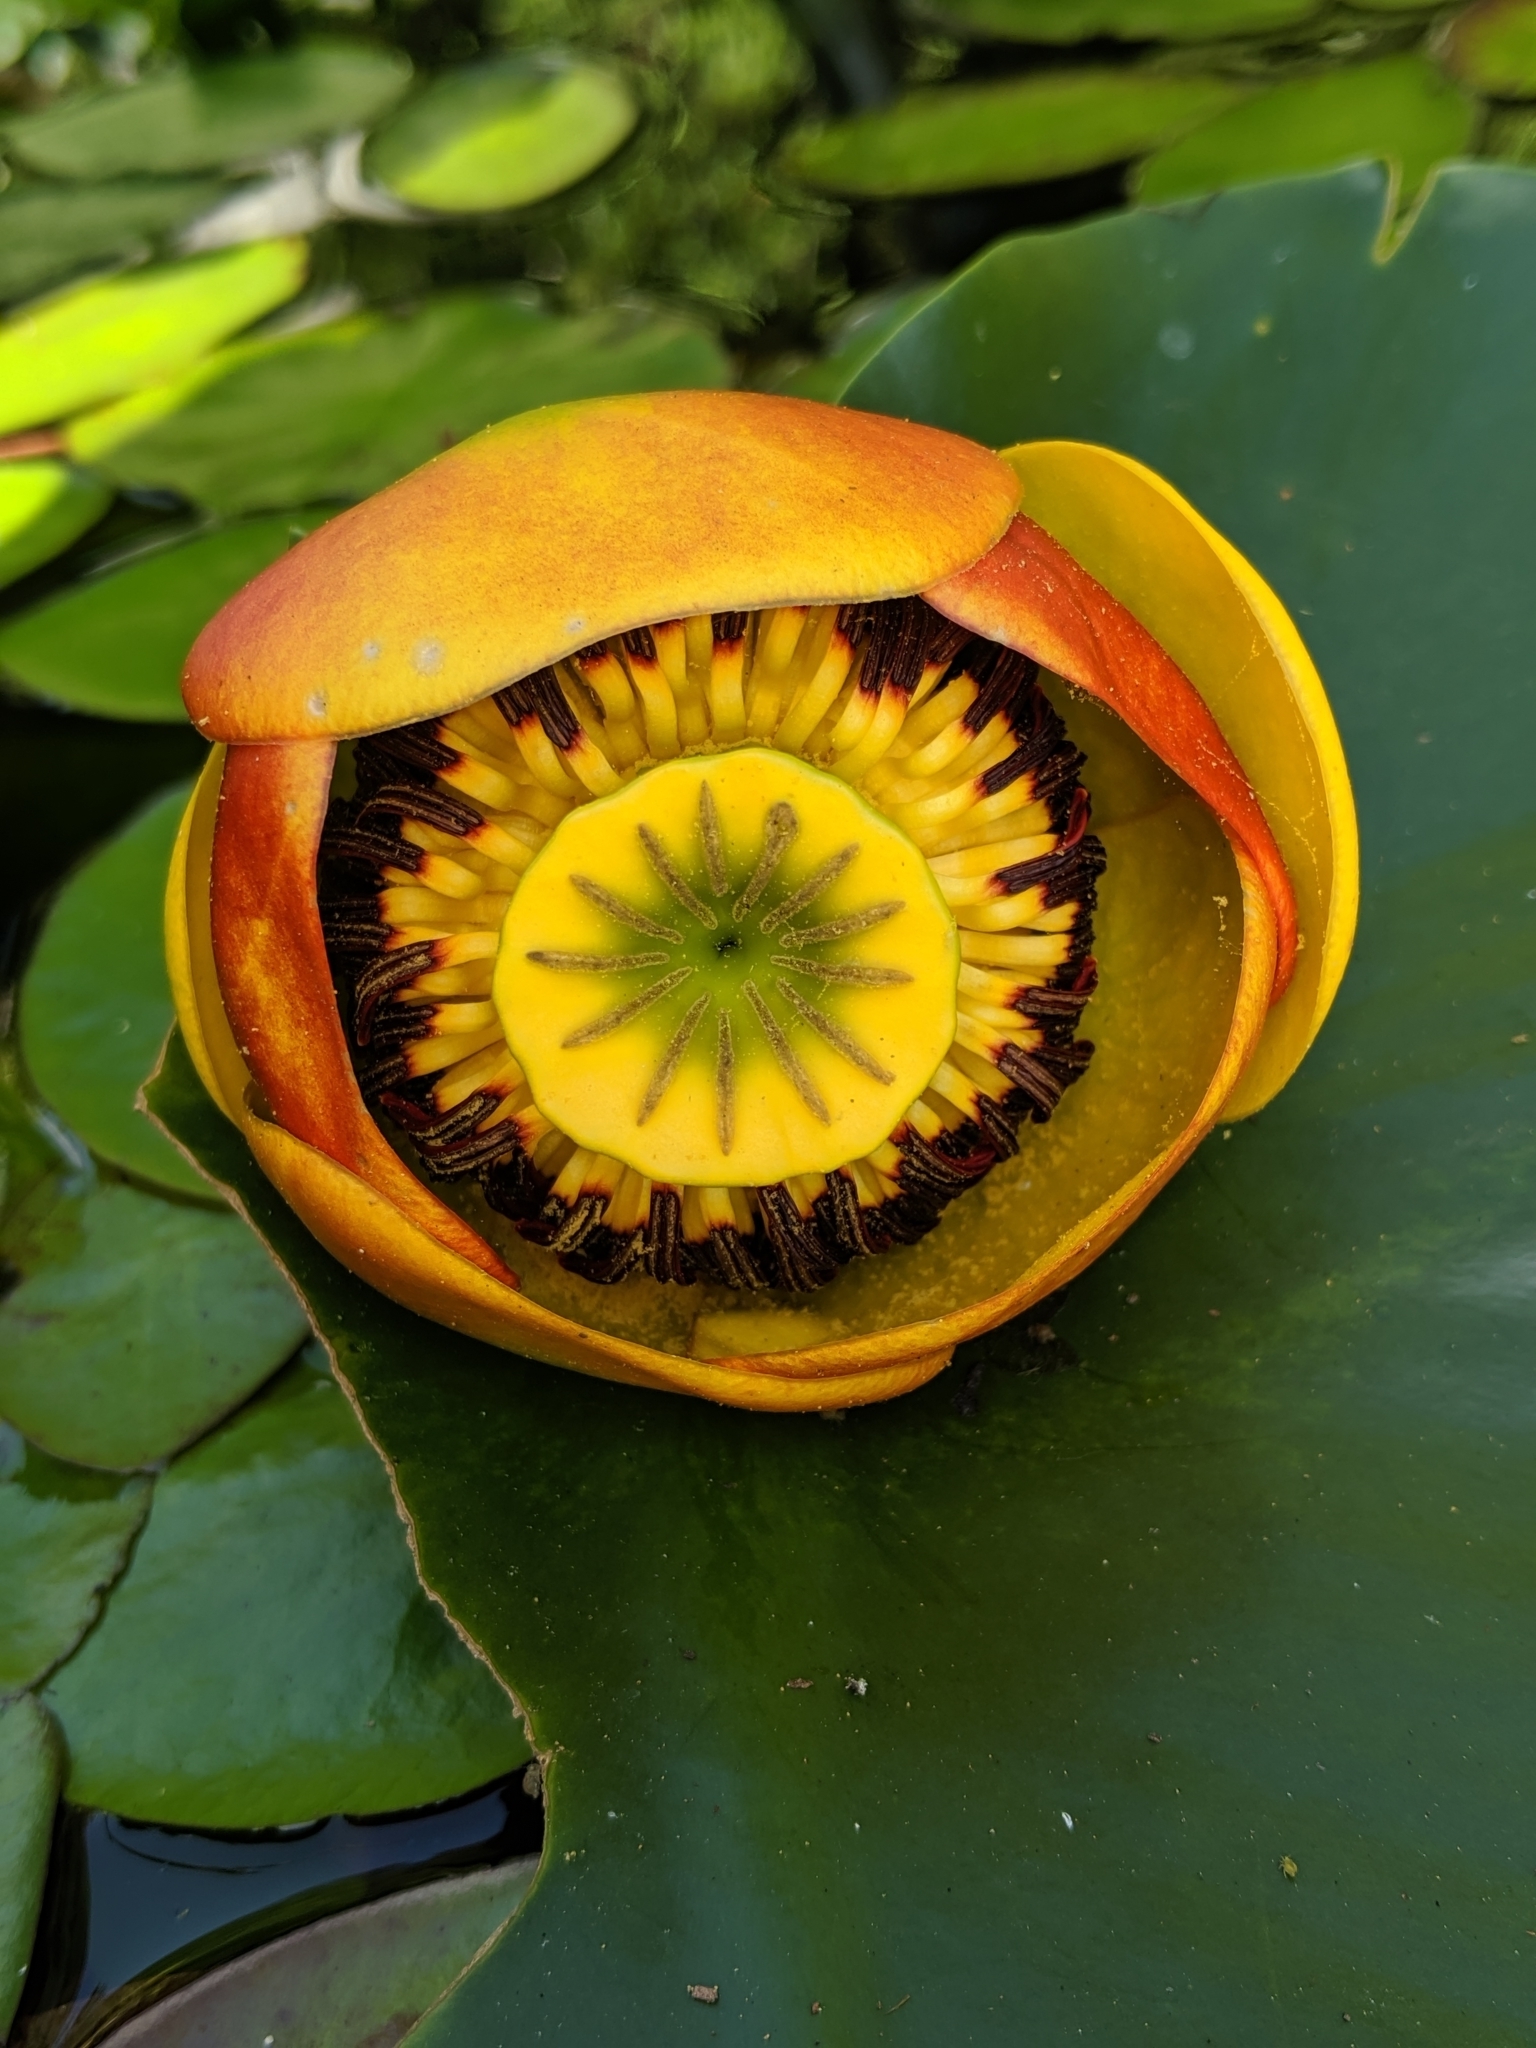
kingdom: Plantae
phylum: Tracheophyta
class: Magnoliopsida
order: Nymphaeales
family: Nymphaeaceae
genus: Nuphar
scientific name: Nuphar polysepala
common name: Rocky mountain cow-lily
